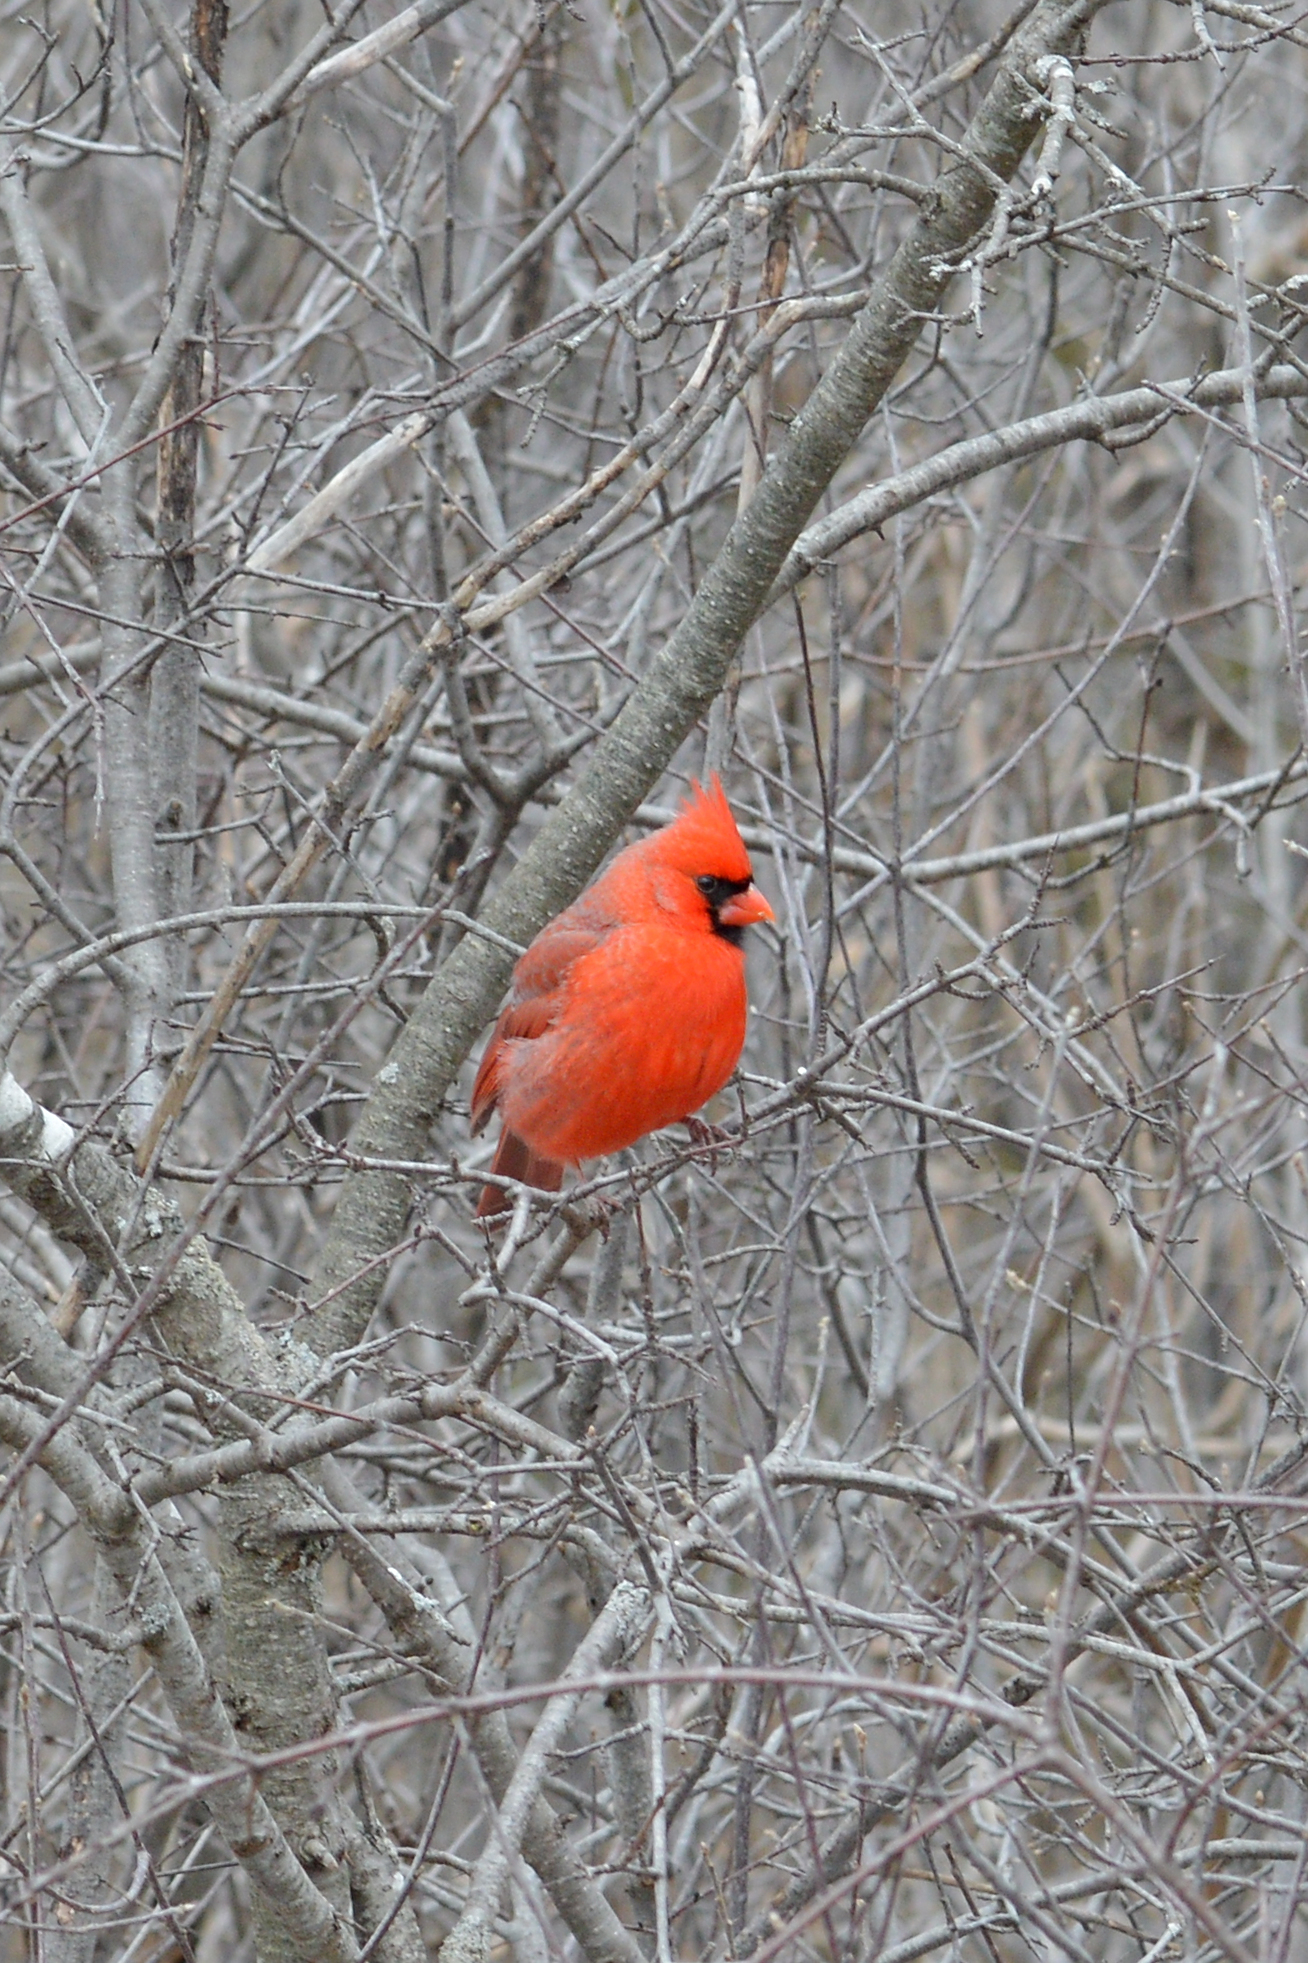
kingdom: Animalia
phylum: Chordata
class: Aves
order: Passeriformes
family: Cardinalidae
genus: Cardinalis
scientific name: Cardinalis cardinalis
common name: Northern cardinal
